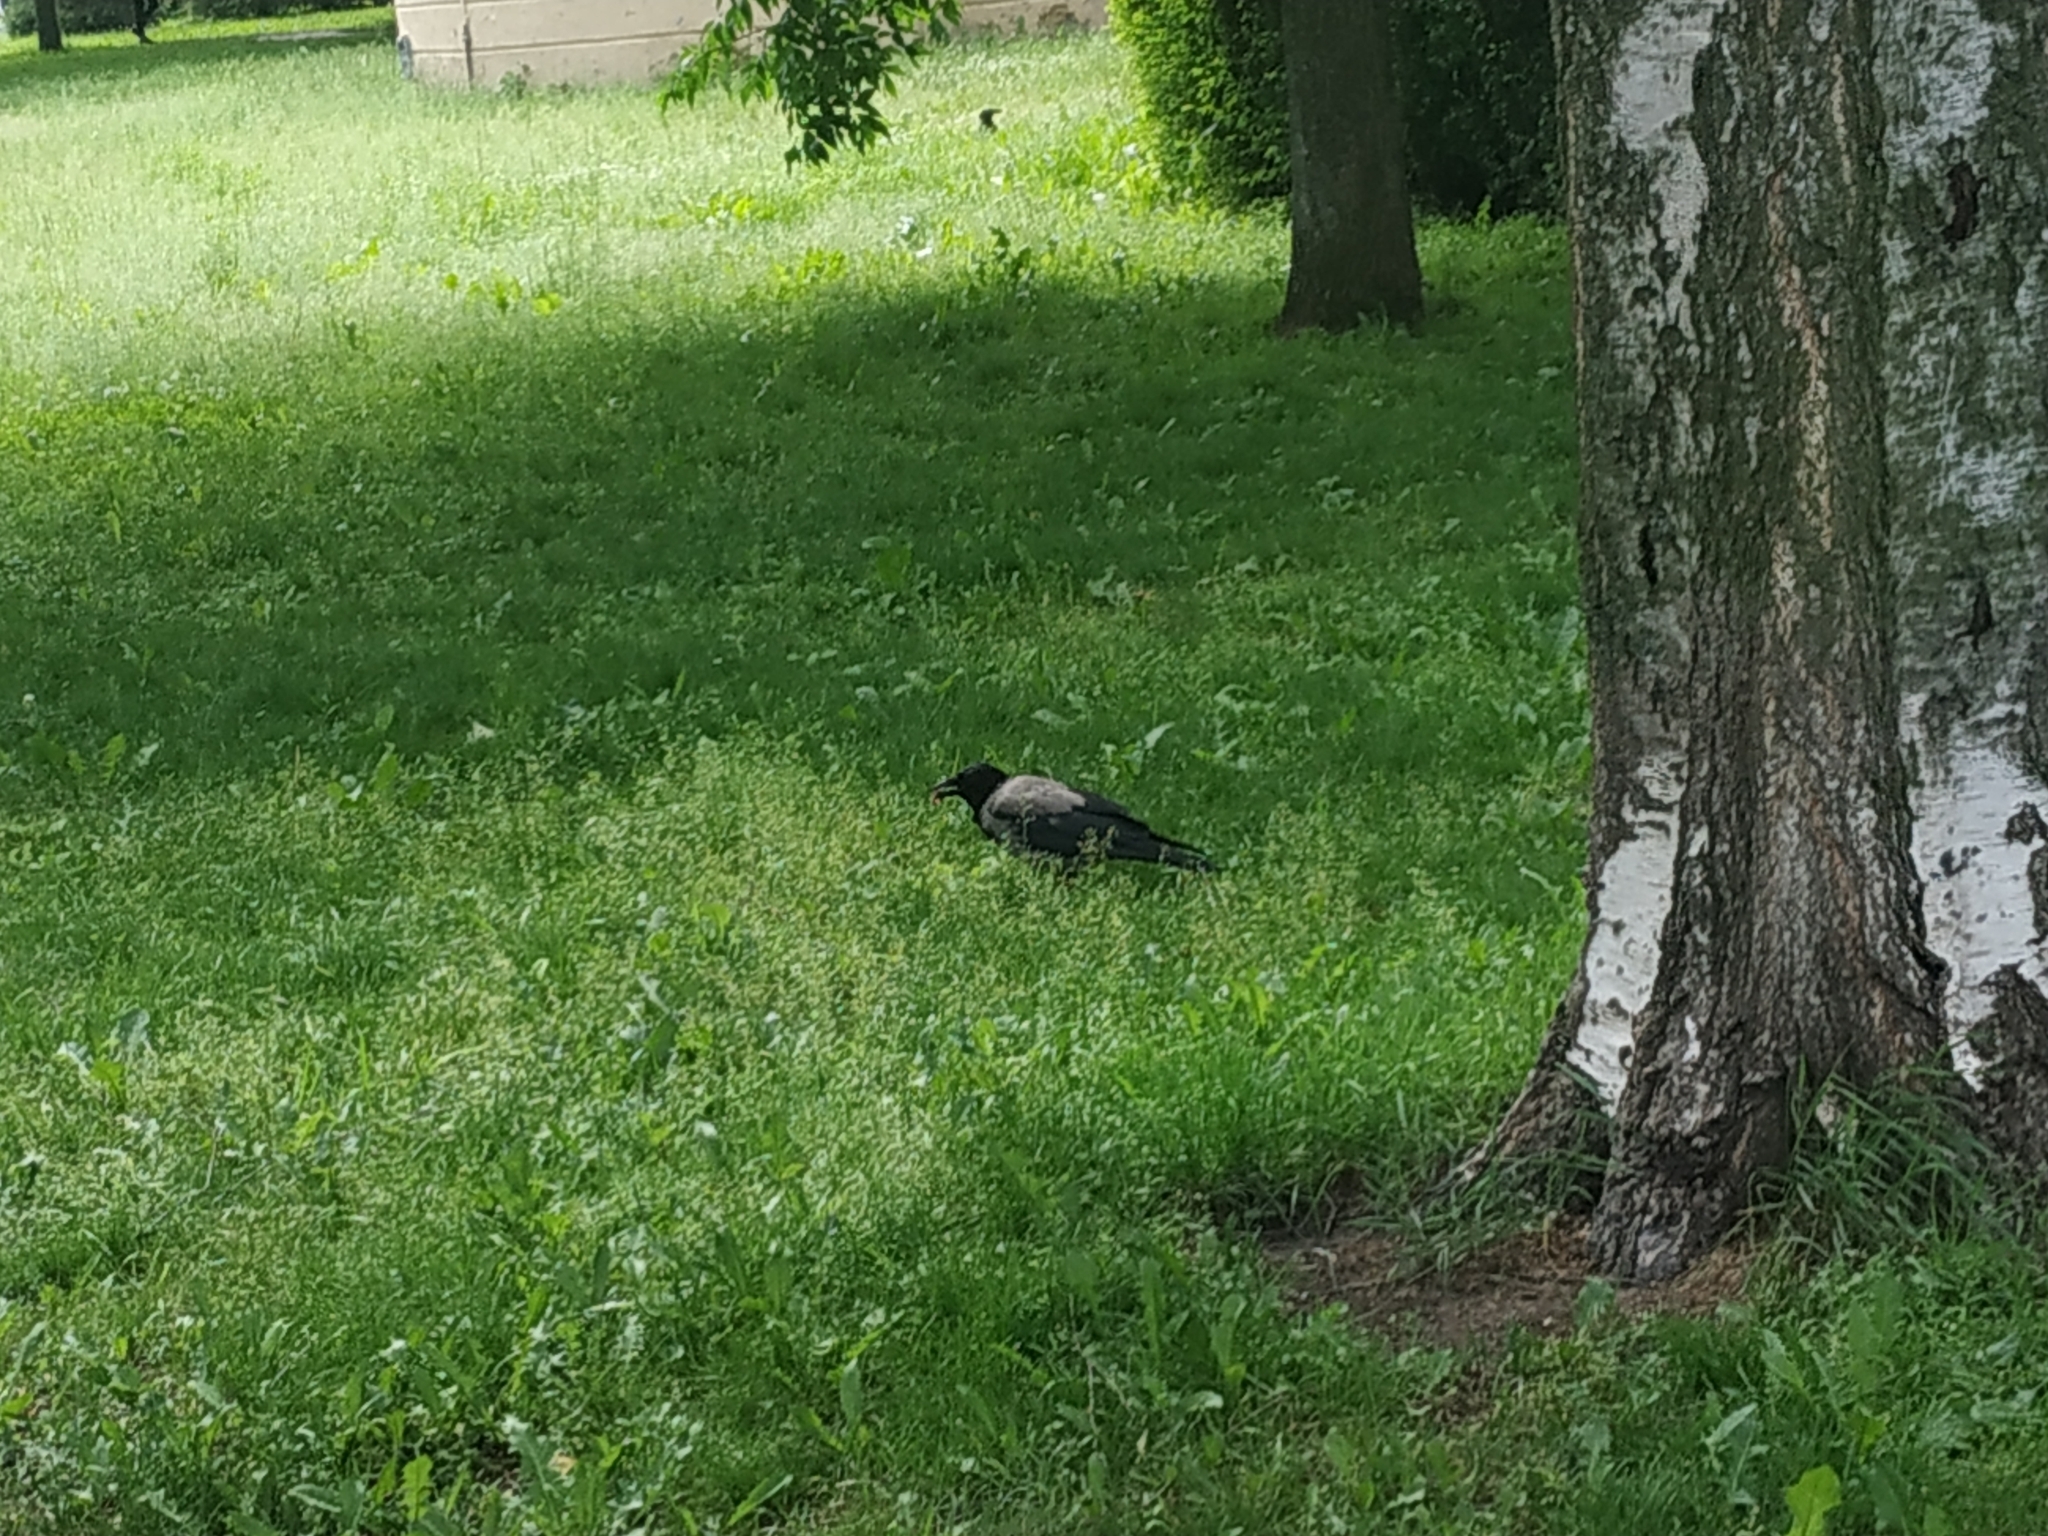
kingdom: Animalia
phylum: Chordata
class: Aves
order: Passeriformes
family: Corvidae
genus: Corvus
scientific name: Corvus cornix
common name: Hooded crow
